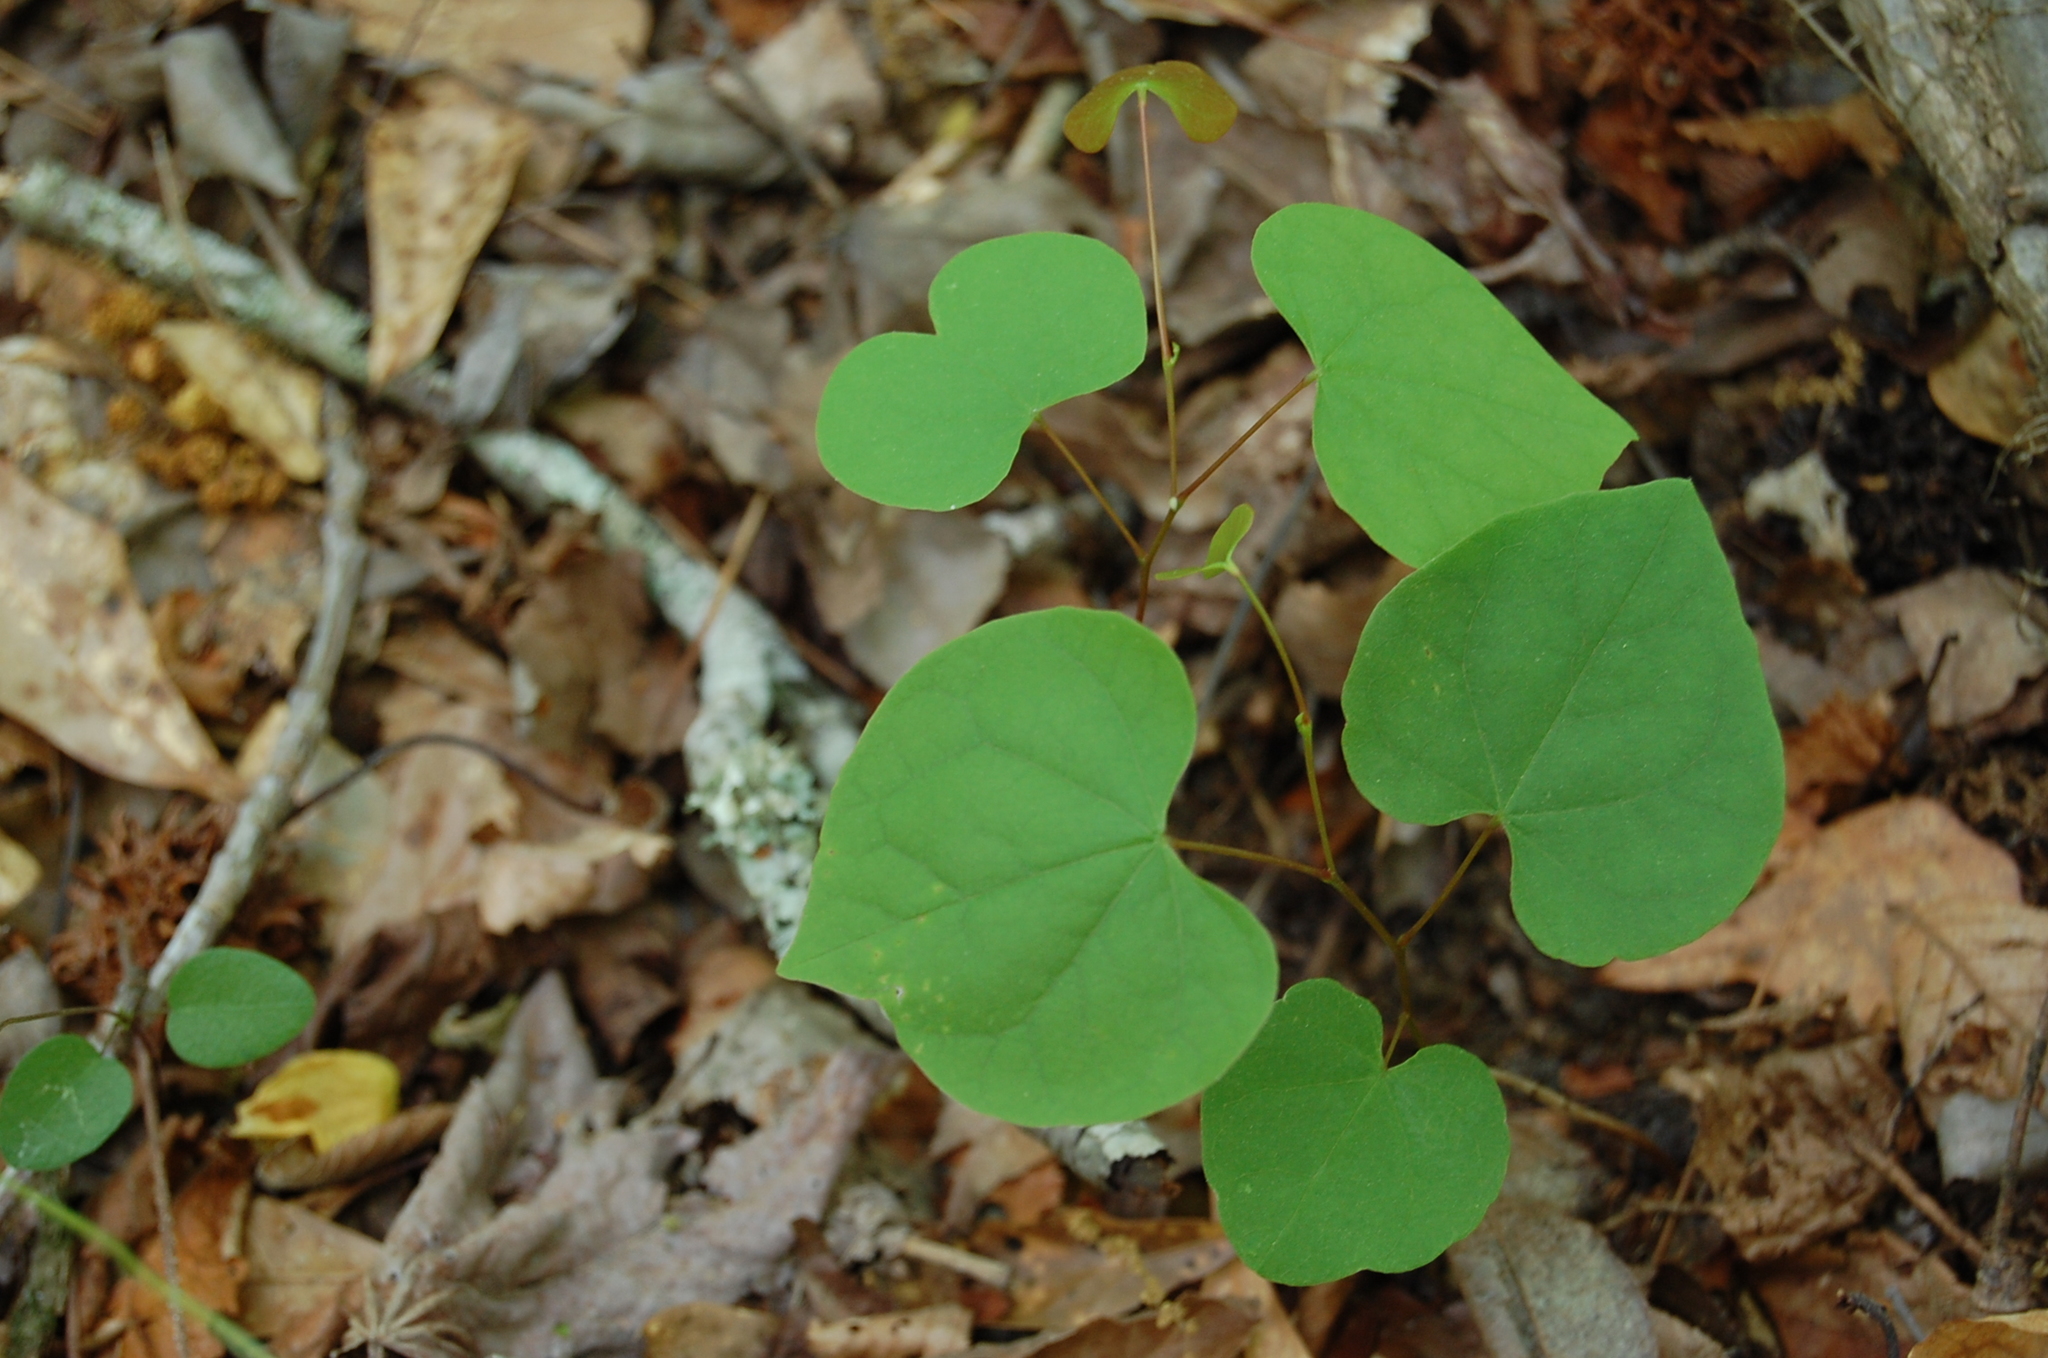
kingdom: Plantae
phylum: Tracheophyta
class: Magnoliopsida
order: Fabales
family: Fabaceae
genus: Cercis
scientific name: Cercis canadensis
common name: Eastern redbud
